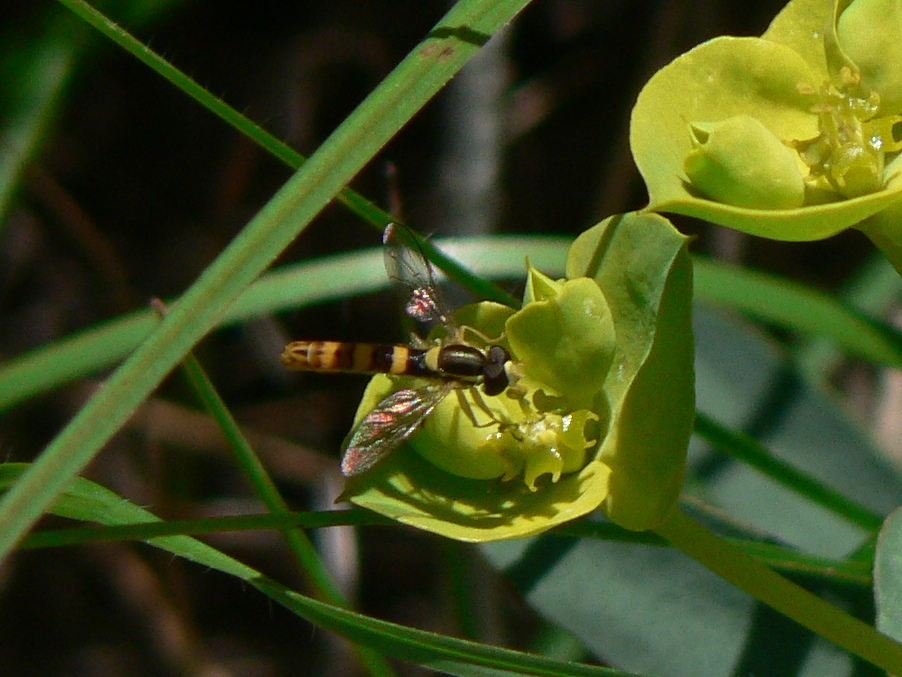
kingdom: Animalia
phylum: Arthropoda
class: Insecta
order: Diptera
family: Syrphidae
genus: Sphaerophoria
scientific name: Sphaerophoria scripta
